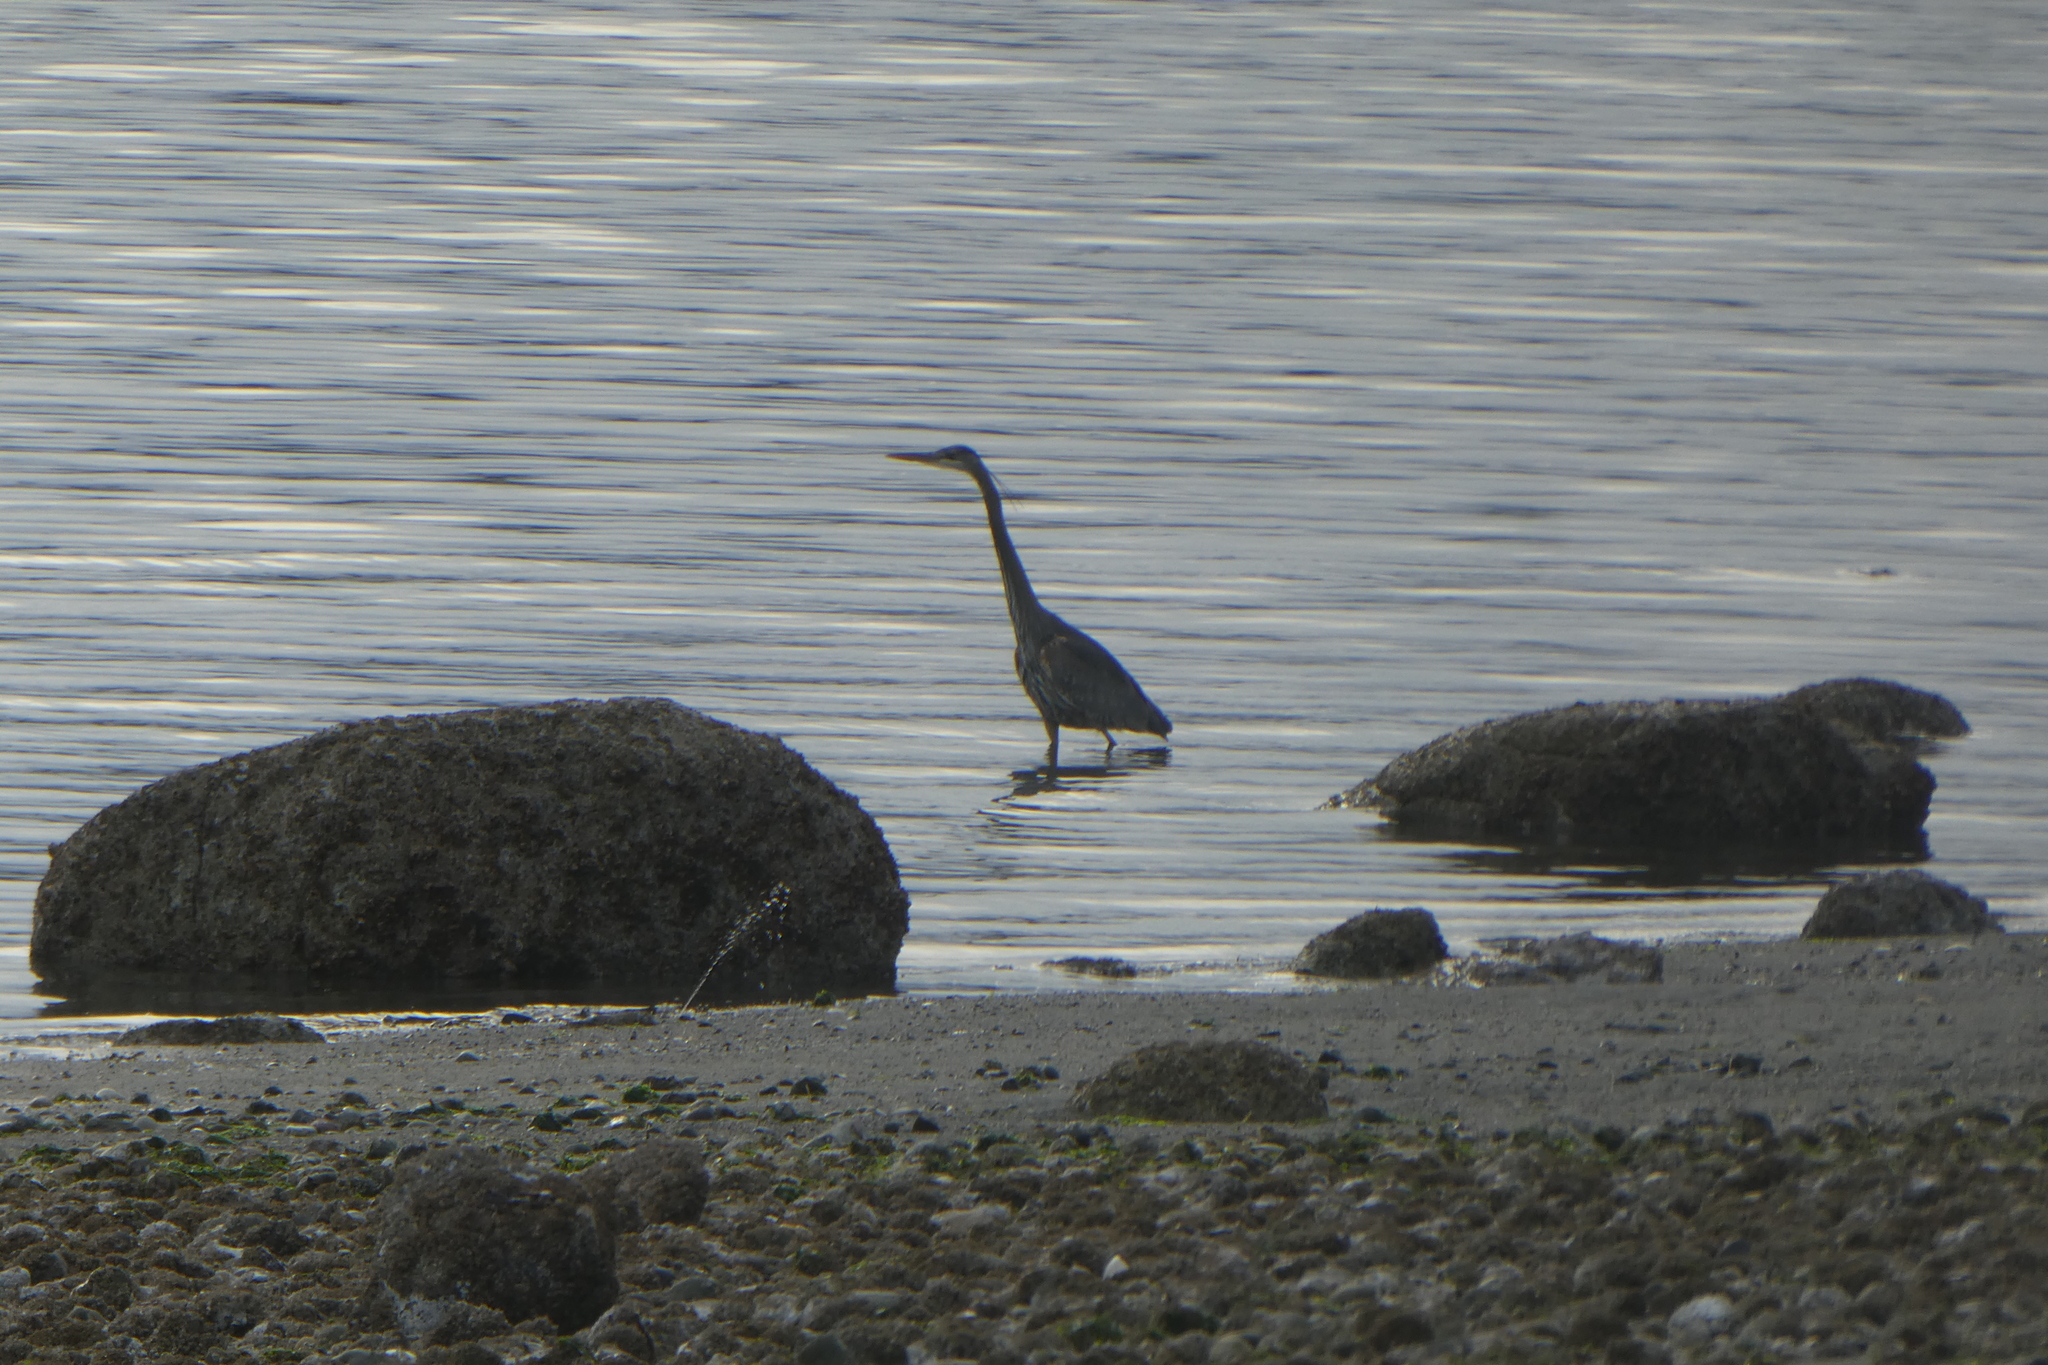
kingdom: Animalia
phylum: Chordata
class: Aves
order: Pelecaniformes
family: Ardeidae
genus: Ardea
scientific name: Ardea herodias
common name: Great blue heron
